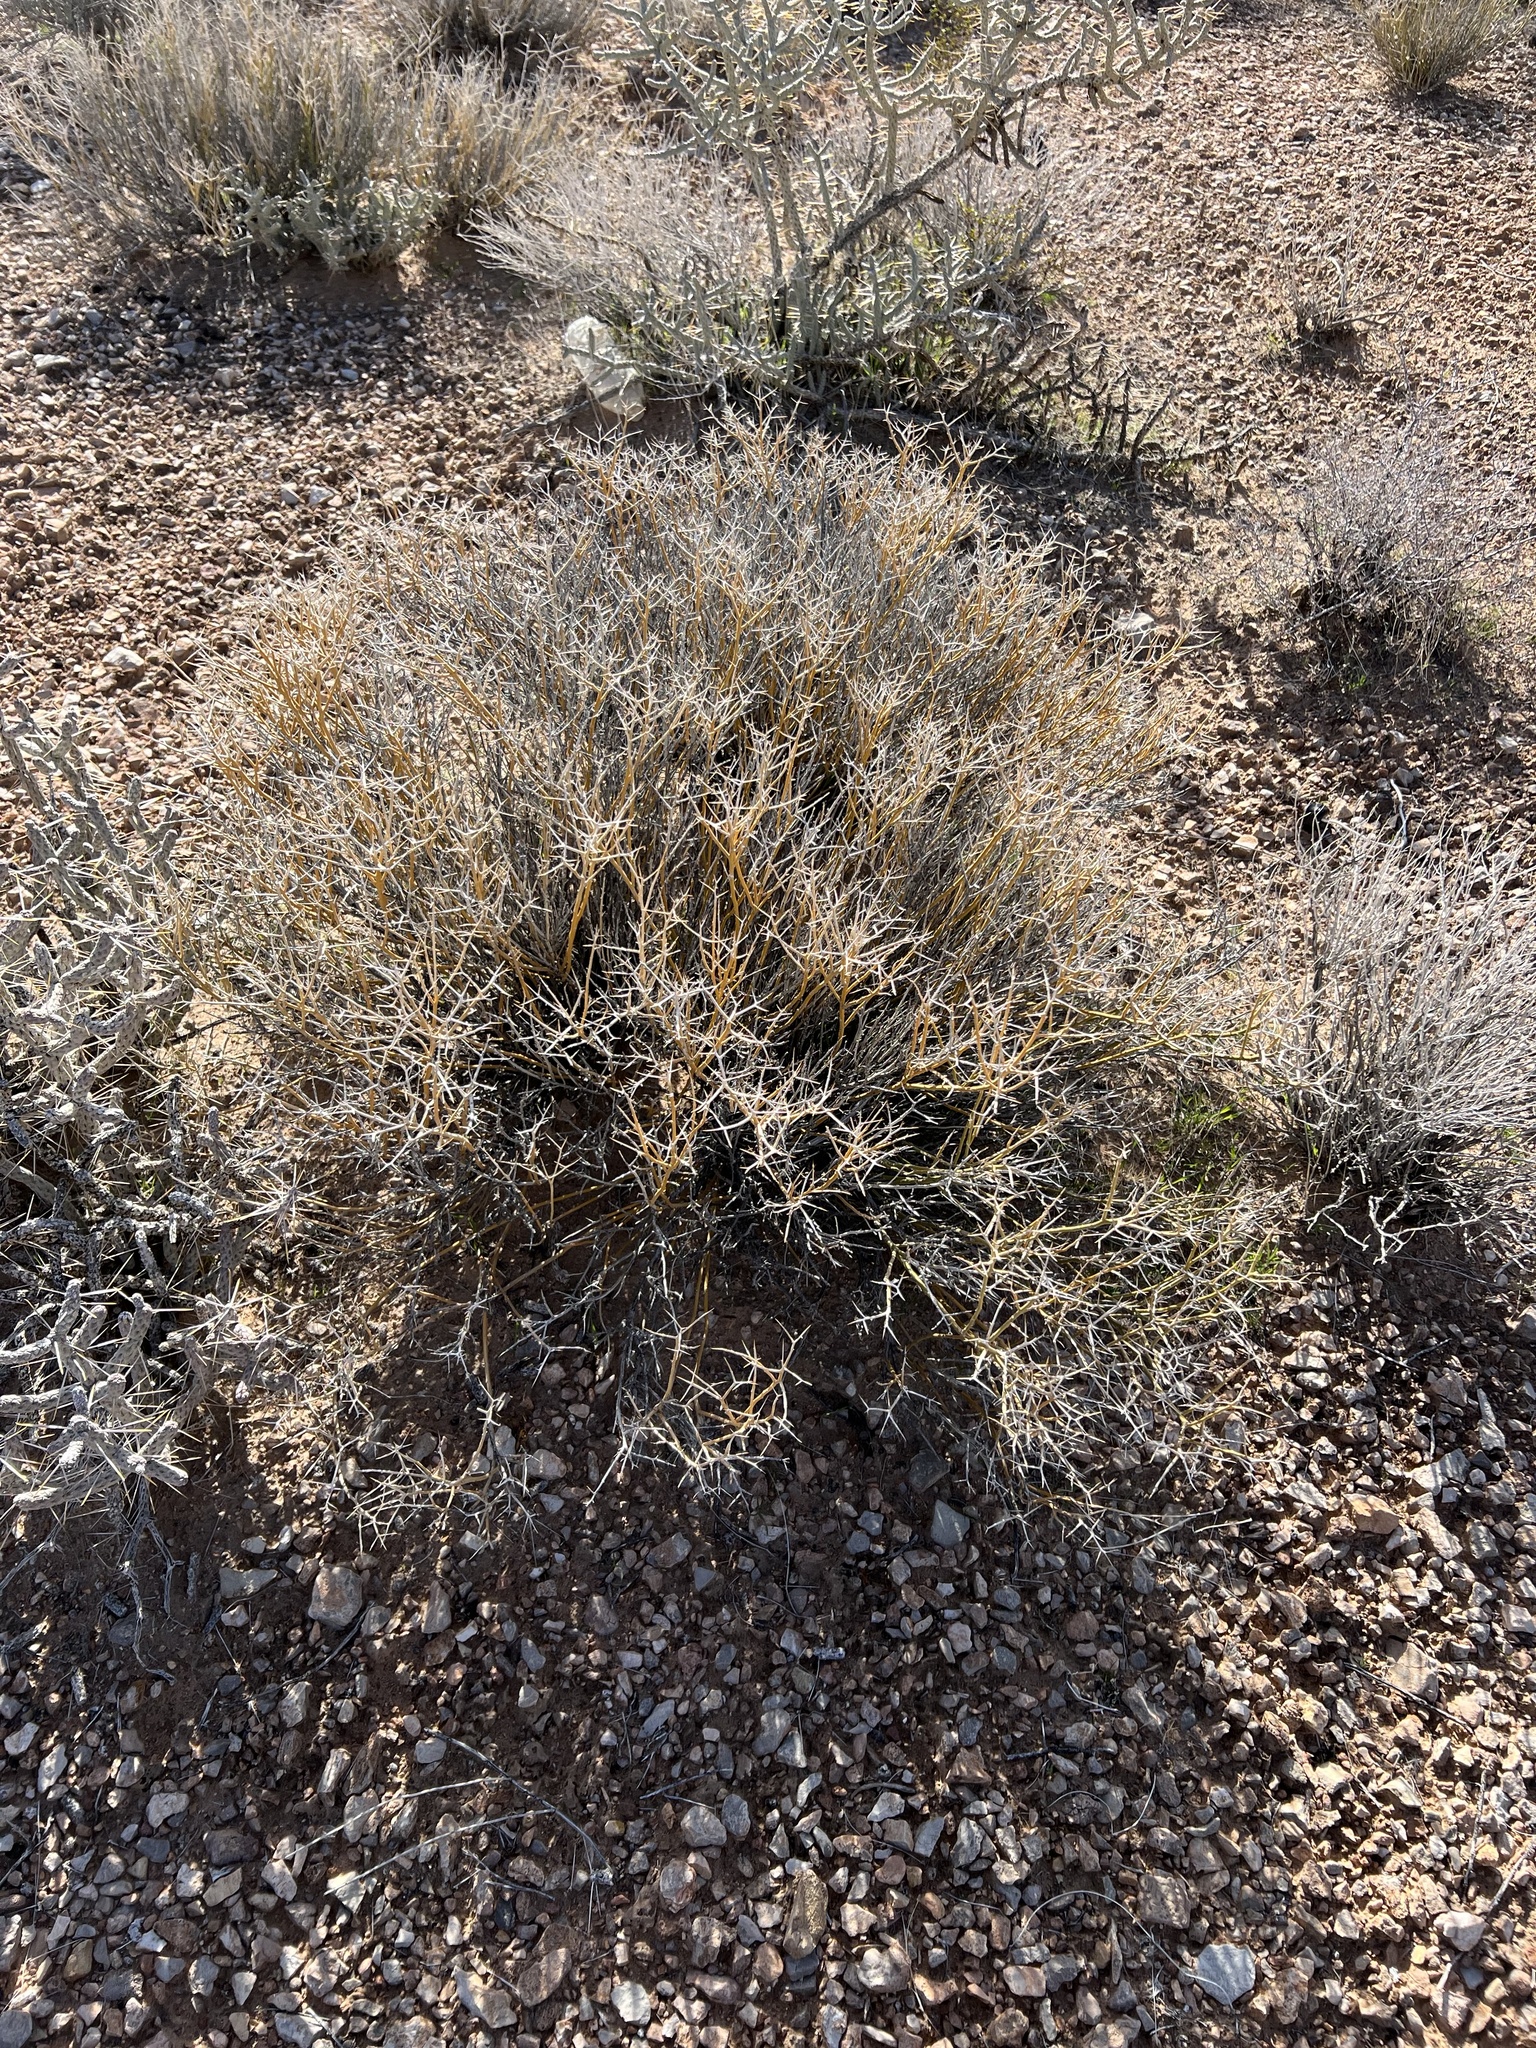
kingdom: Plantae
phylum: Tracheophyta
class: Magnoliopsida
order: Lamiales
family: Oleaceae
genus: Menodora
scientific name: Menodora spinescens
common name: Spiny menodora
